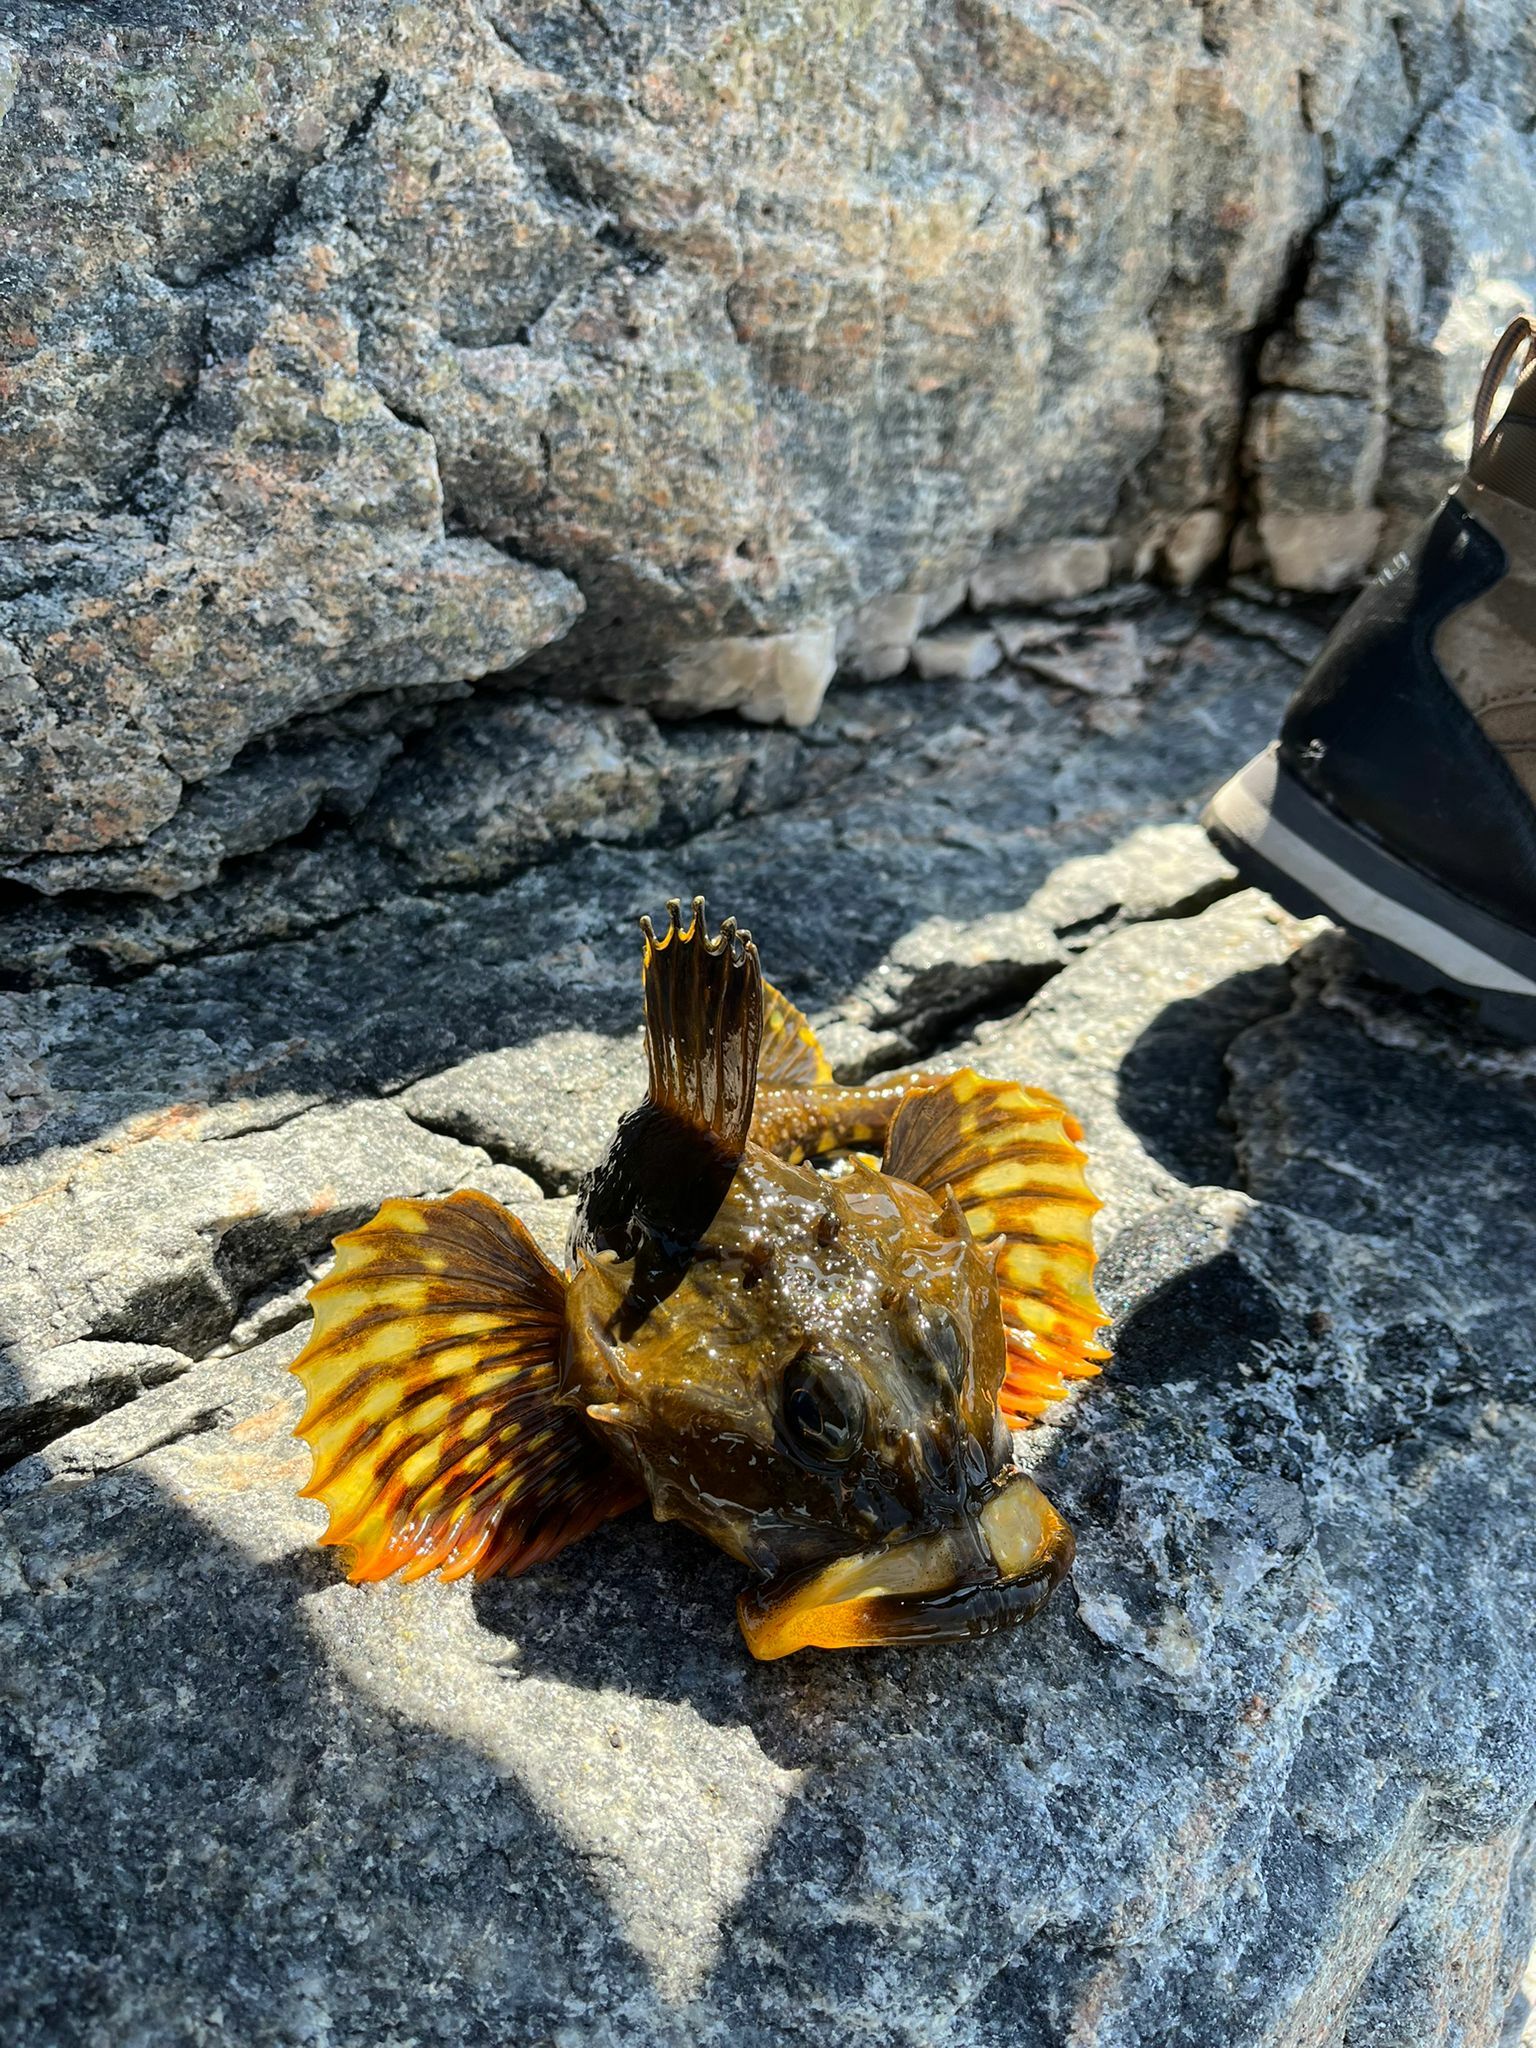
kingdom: Animalia
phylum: Chordata
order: Scorpaeniformes
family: Cottidae
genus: Myoxocephalus
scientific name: Myoxocephalus scorpius
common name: Shorthorn sculpin
